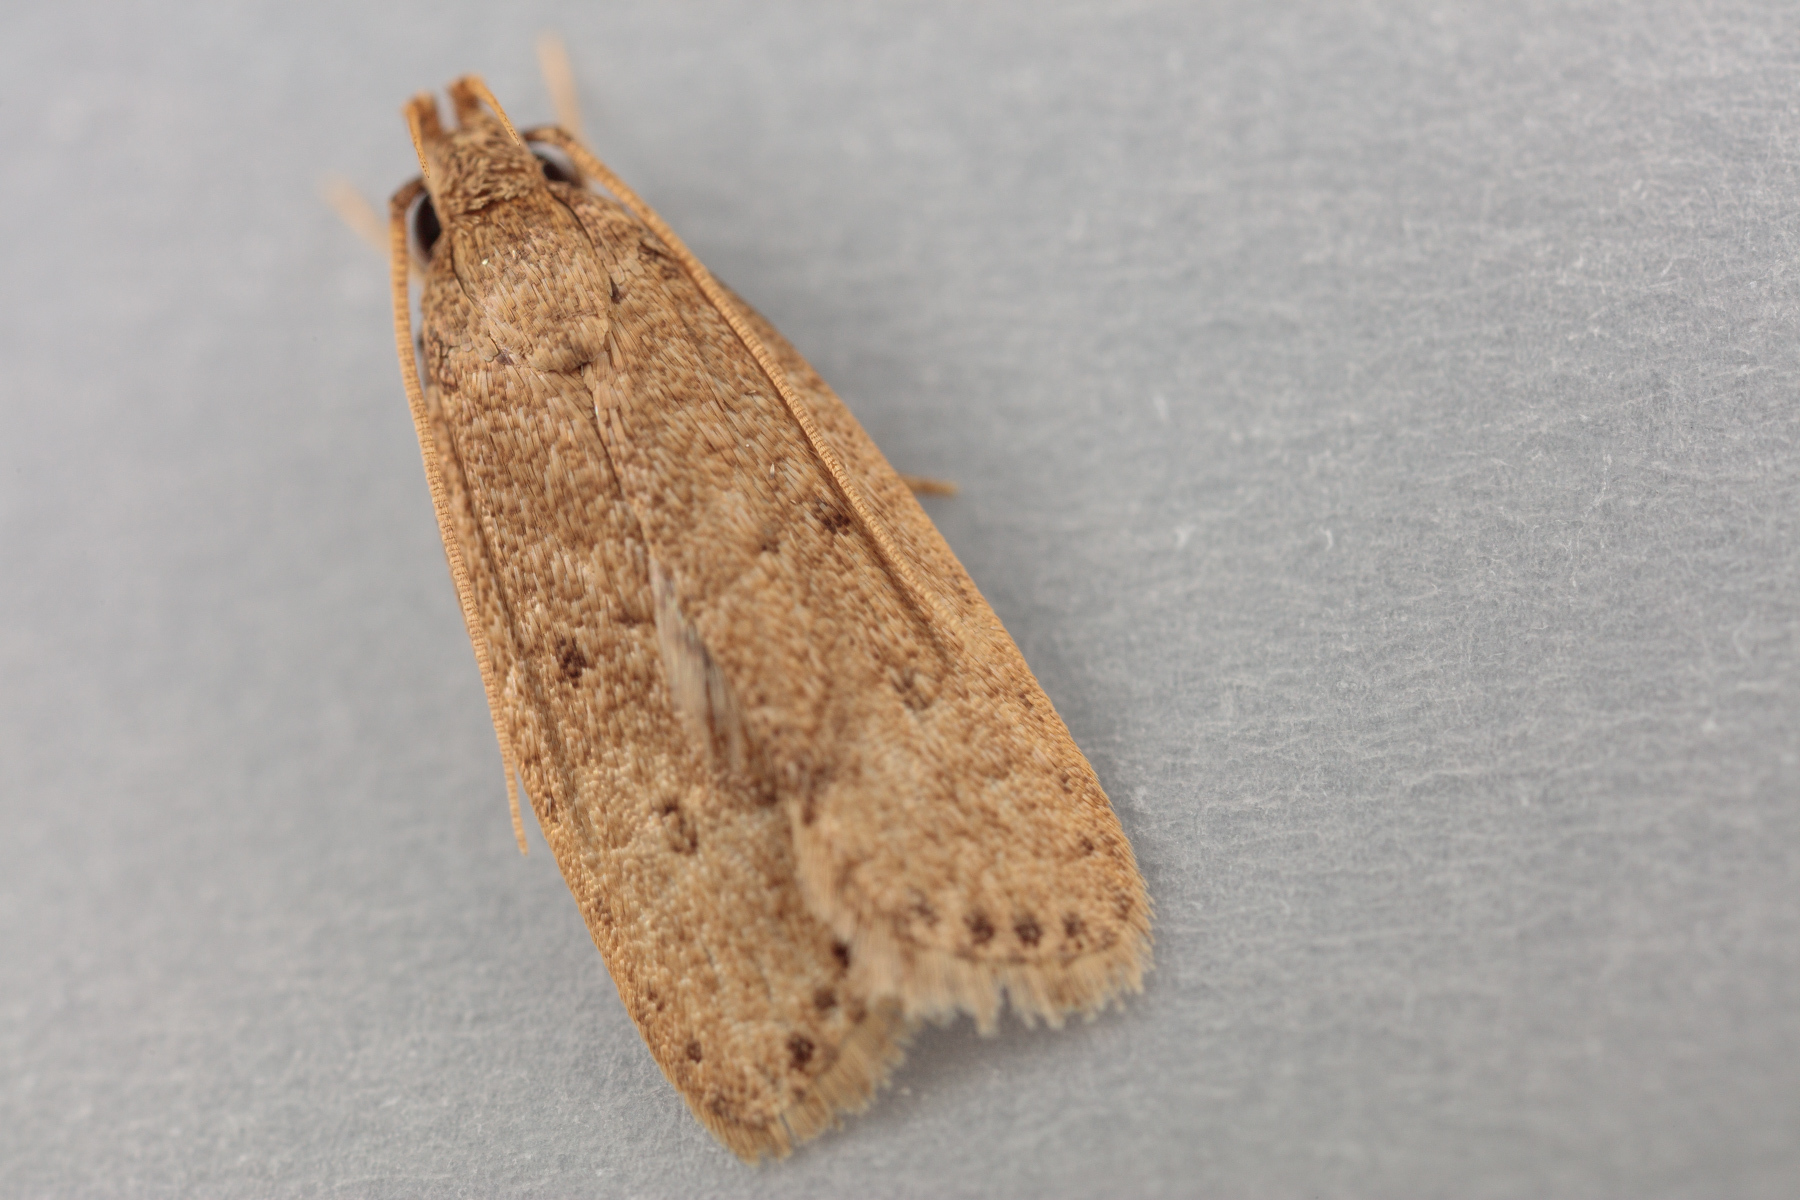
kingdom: Animalia
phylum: Arthropoda
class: Insecta
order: Lepidoptera
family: Autostichidae
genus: Autosticha
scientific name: Autosticha kyotensis
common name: Kyoto moth
